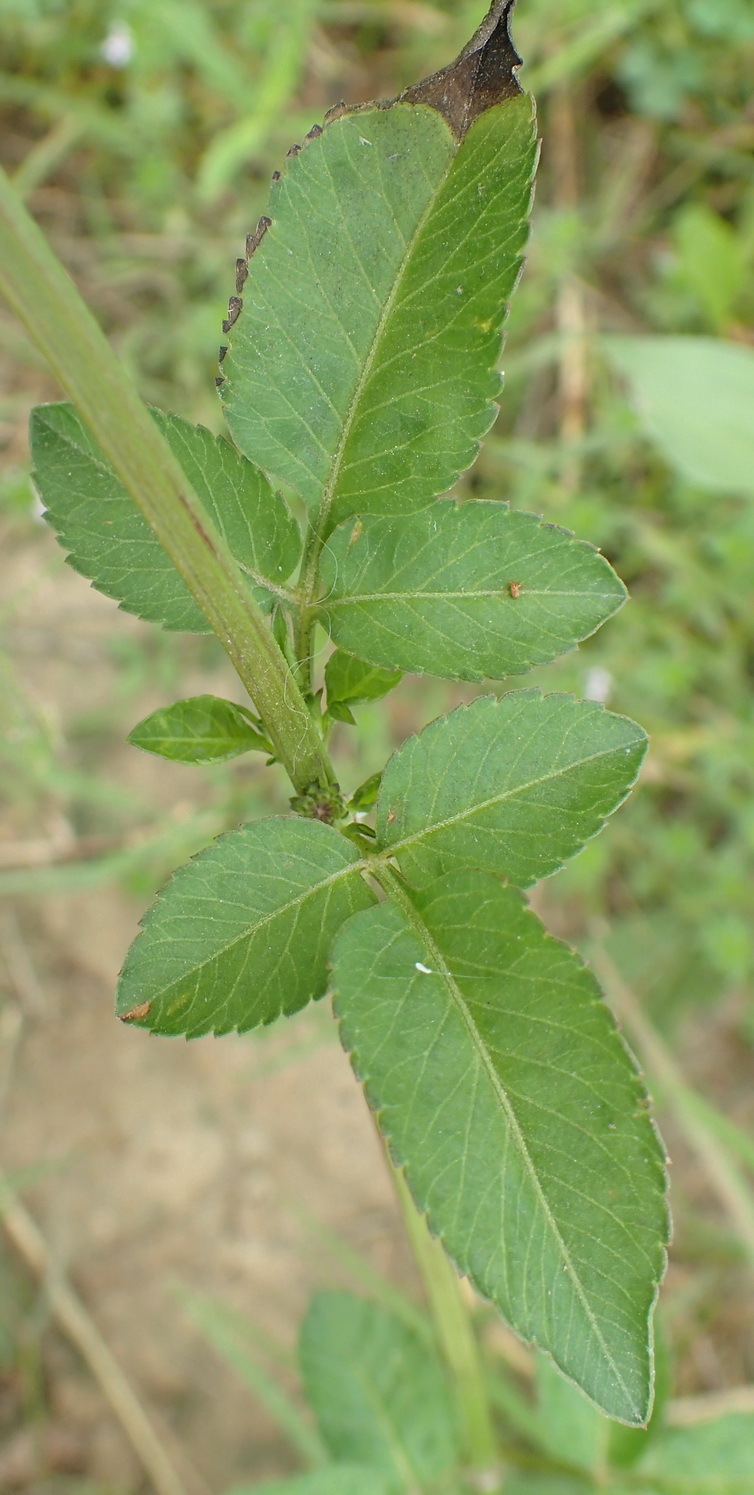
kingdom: Plantae
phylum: Tracheophyta
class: Magnoliopsida
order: Asterales
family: Asteraceae
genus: Bidens
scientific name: Bidens alba
